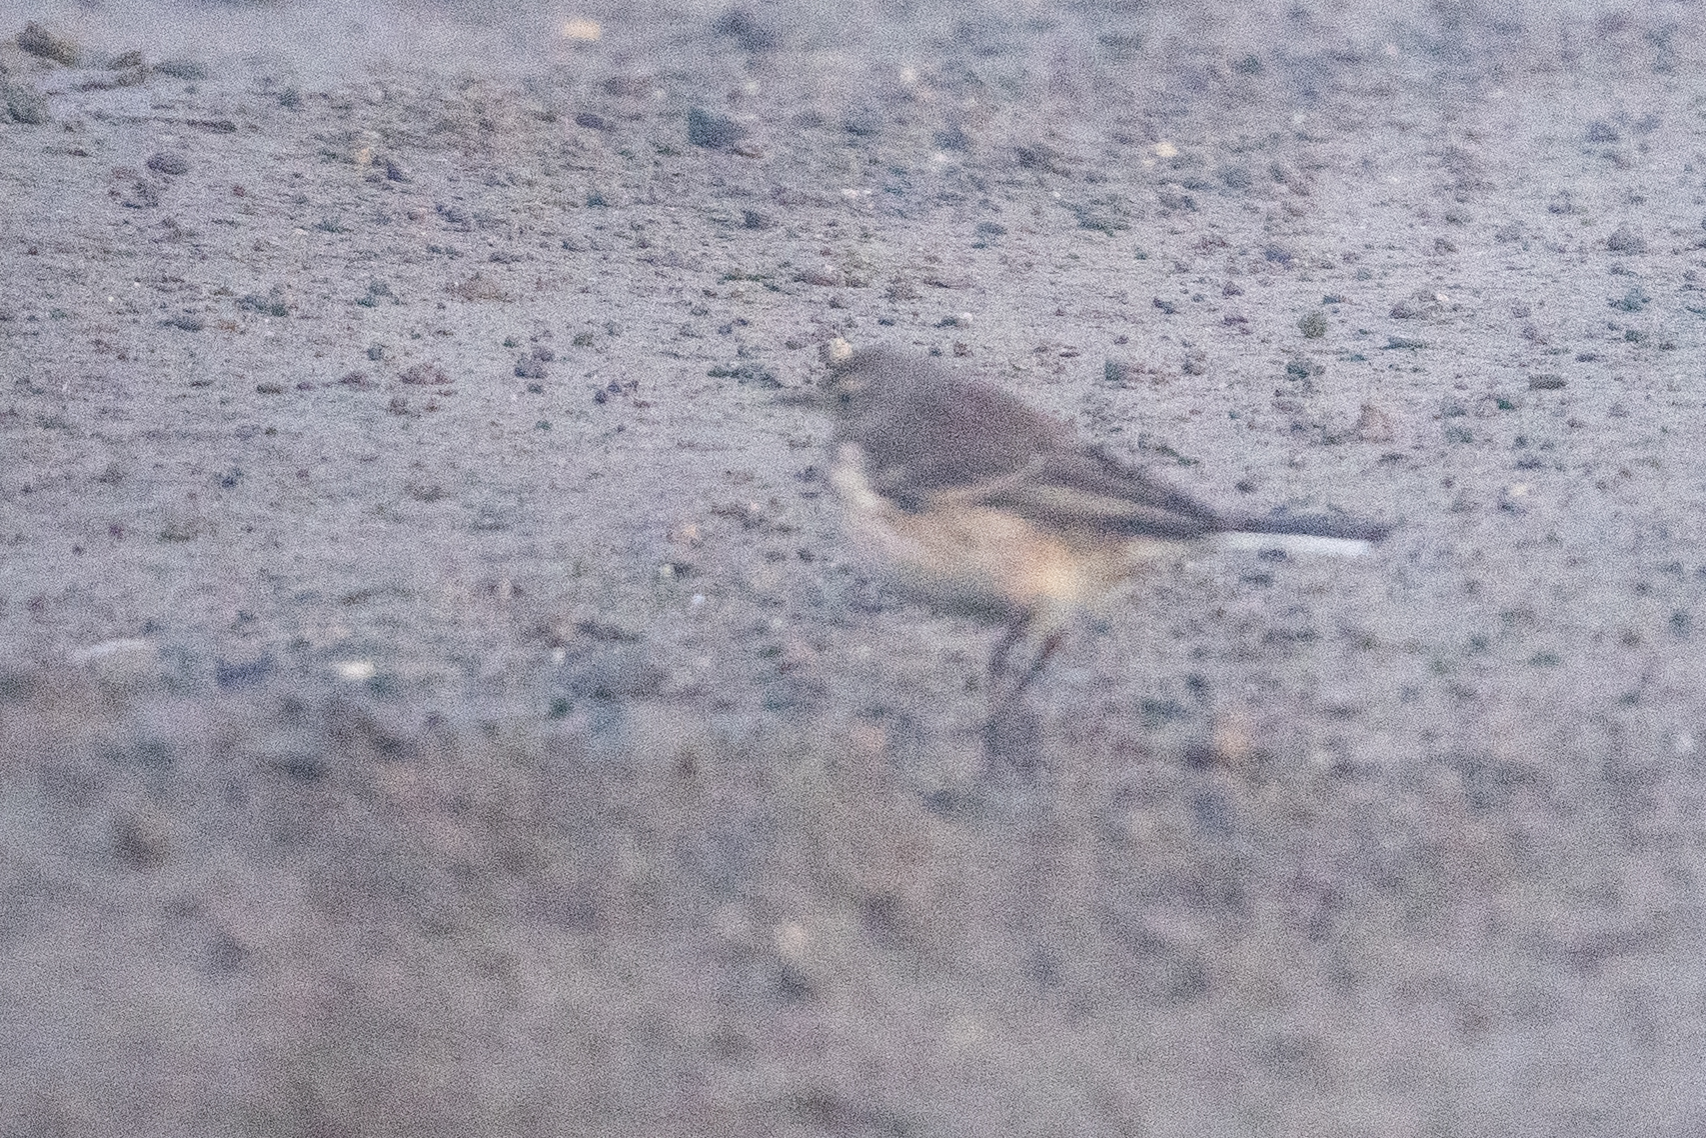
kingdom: Animalia
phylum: Chordata
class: Aves
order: Passeriformes
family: Motacillidae
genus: Anthus
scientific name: Anthus rubescens
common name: Buff-bellied pipit
